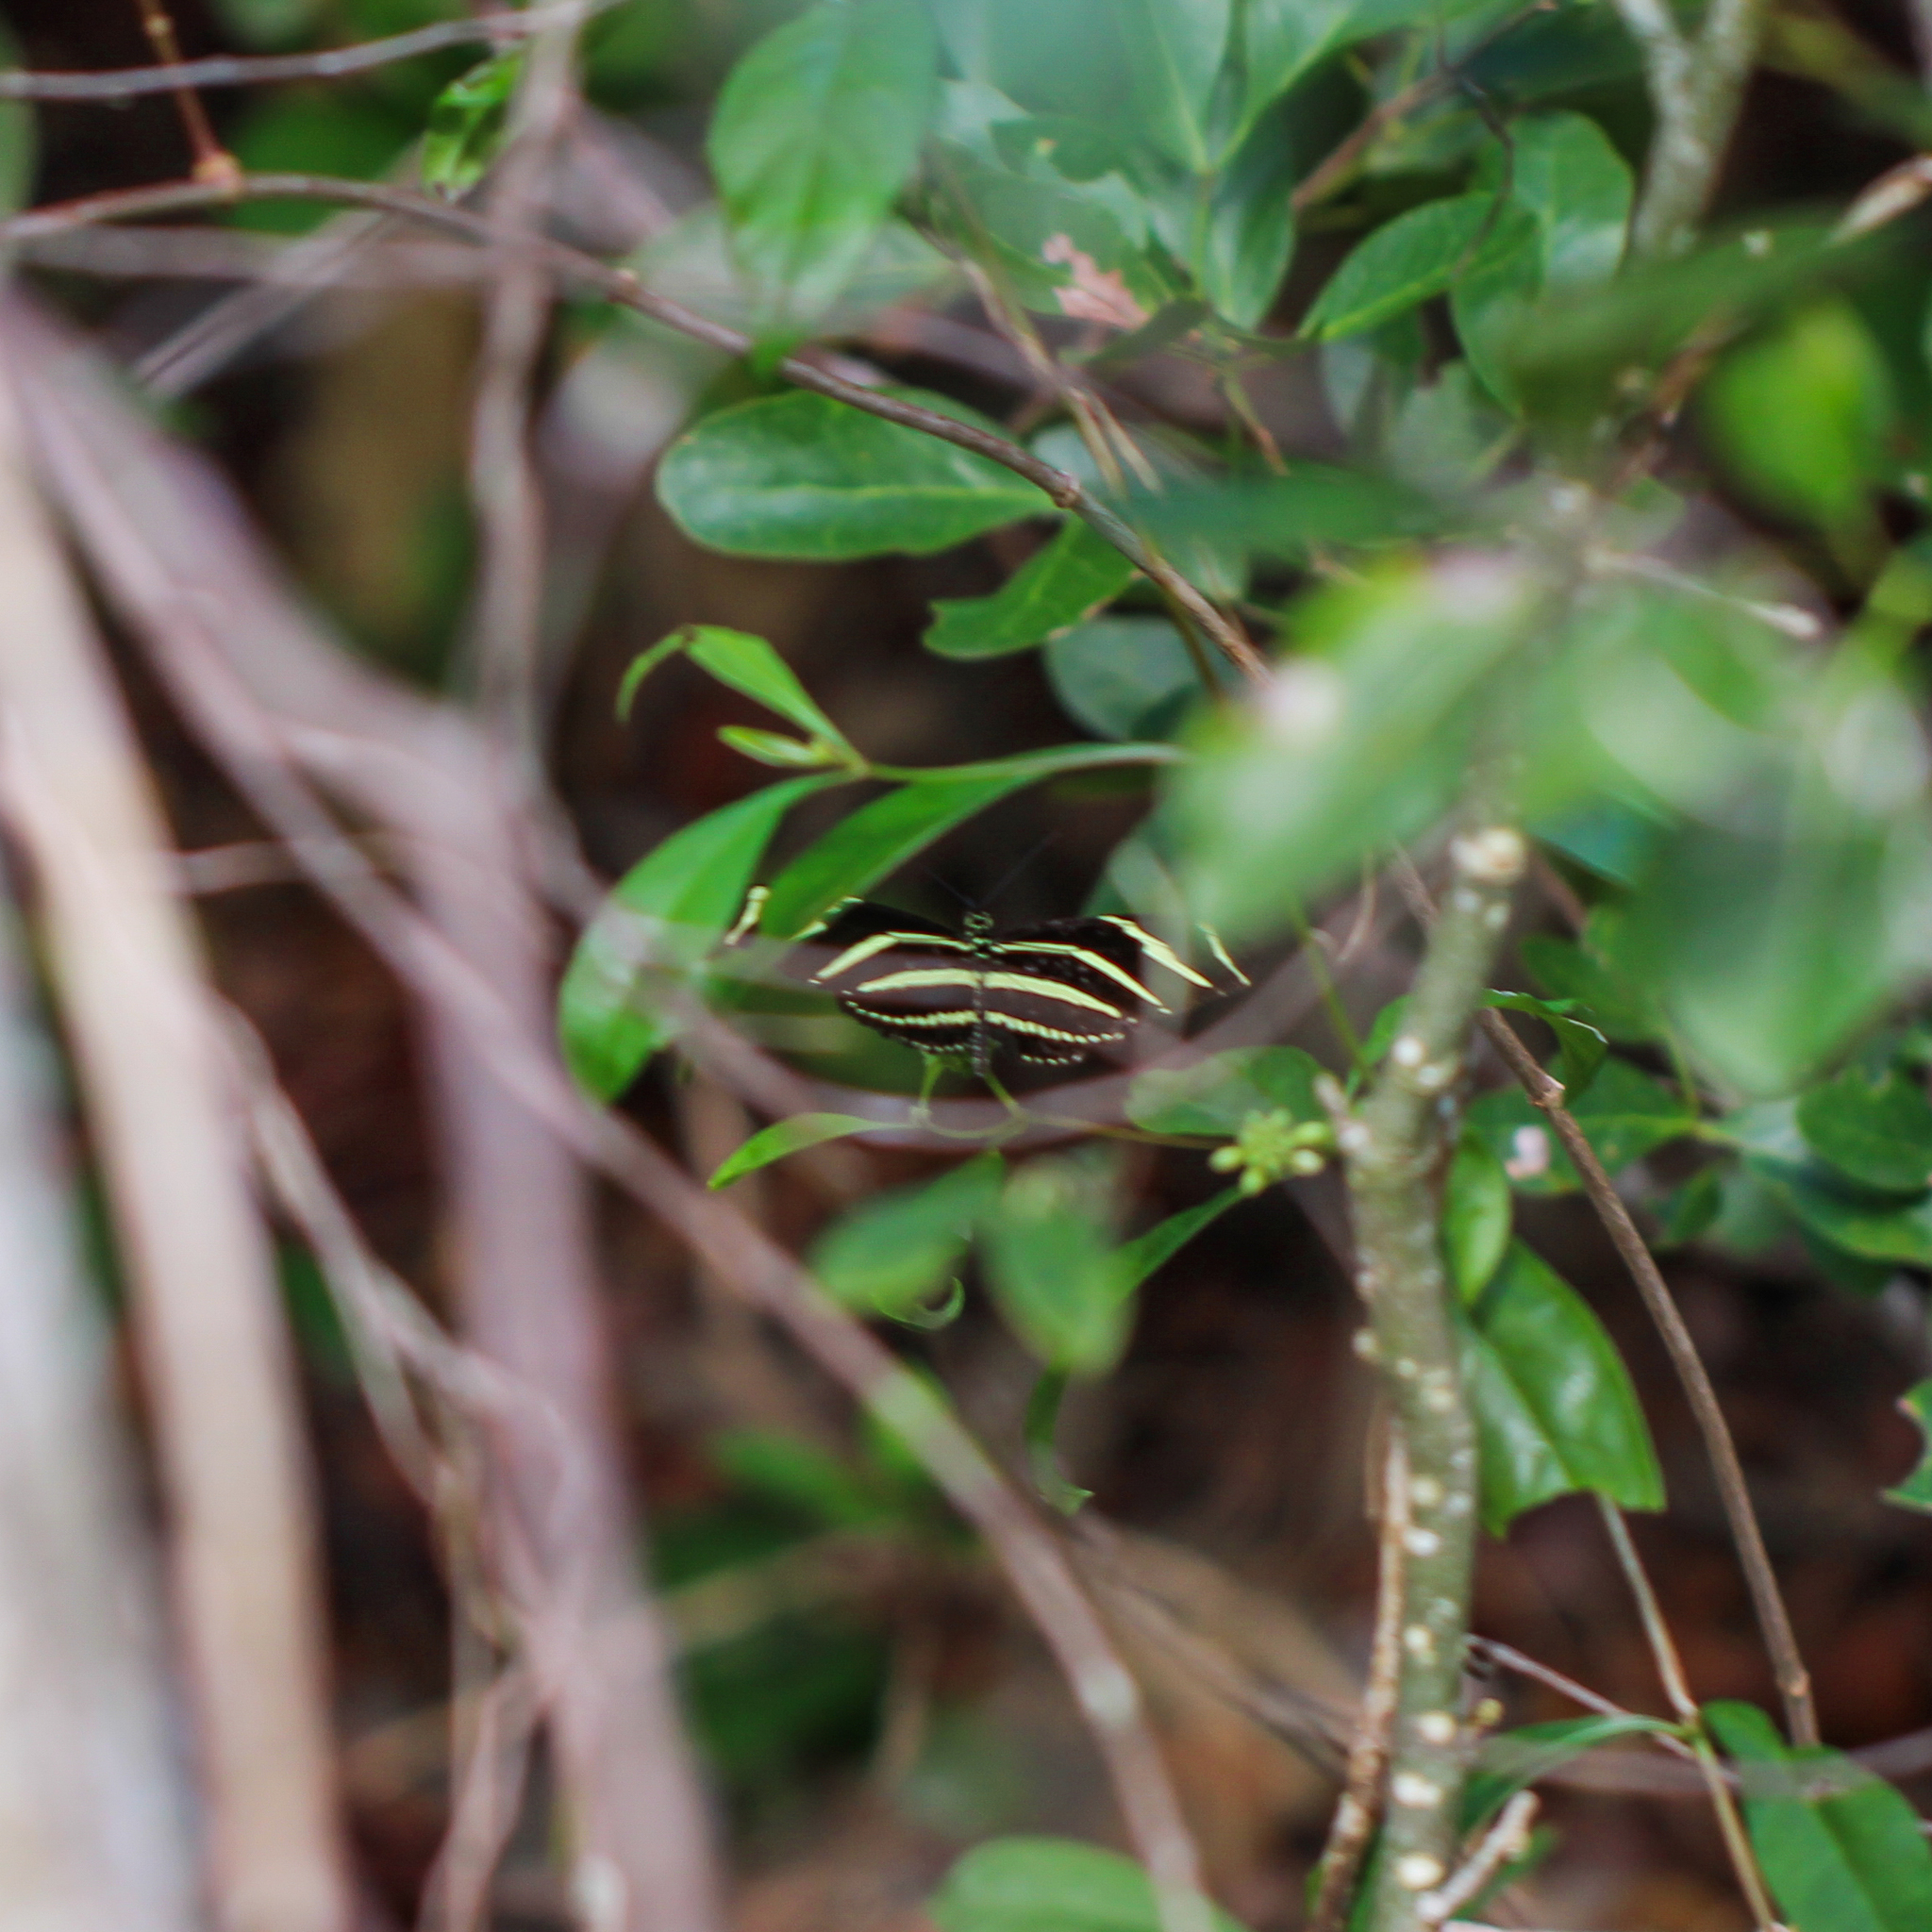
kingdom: Animalia
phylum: Arthropoda
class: Insecta
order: Lepidoptera
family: Nymphalidae
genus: Heliconius
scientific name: Heliconius charithonia
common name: Zebra long wing
